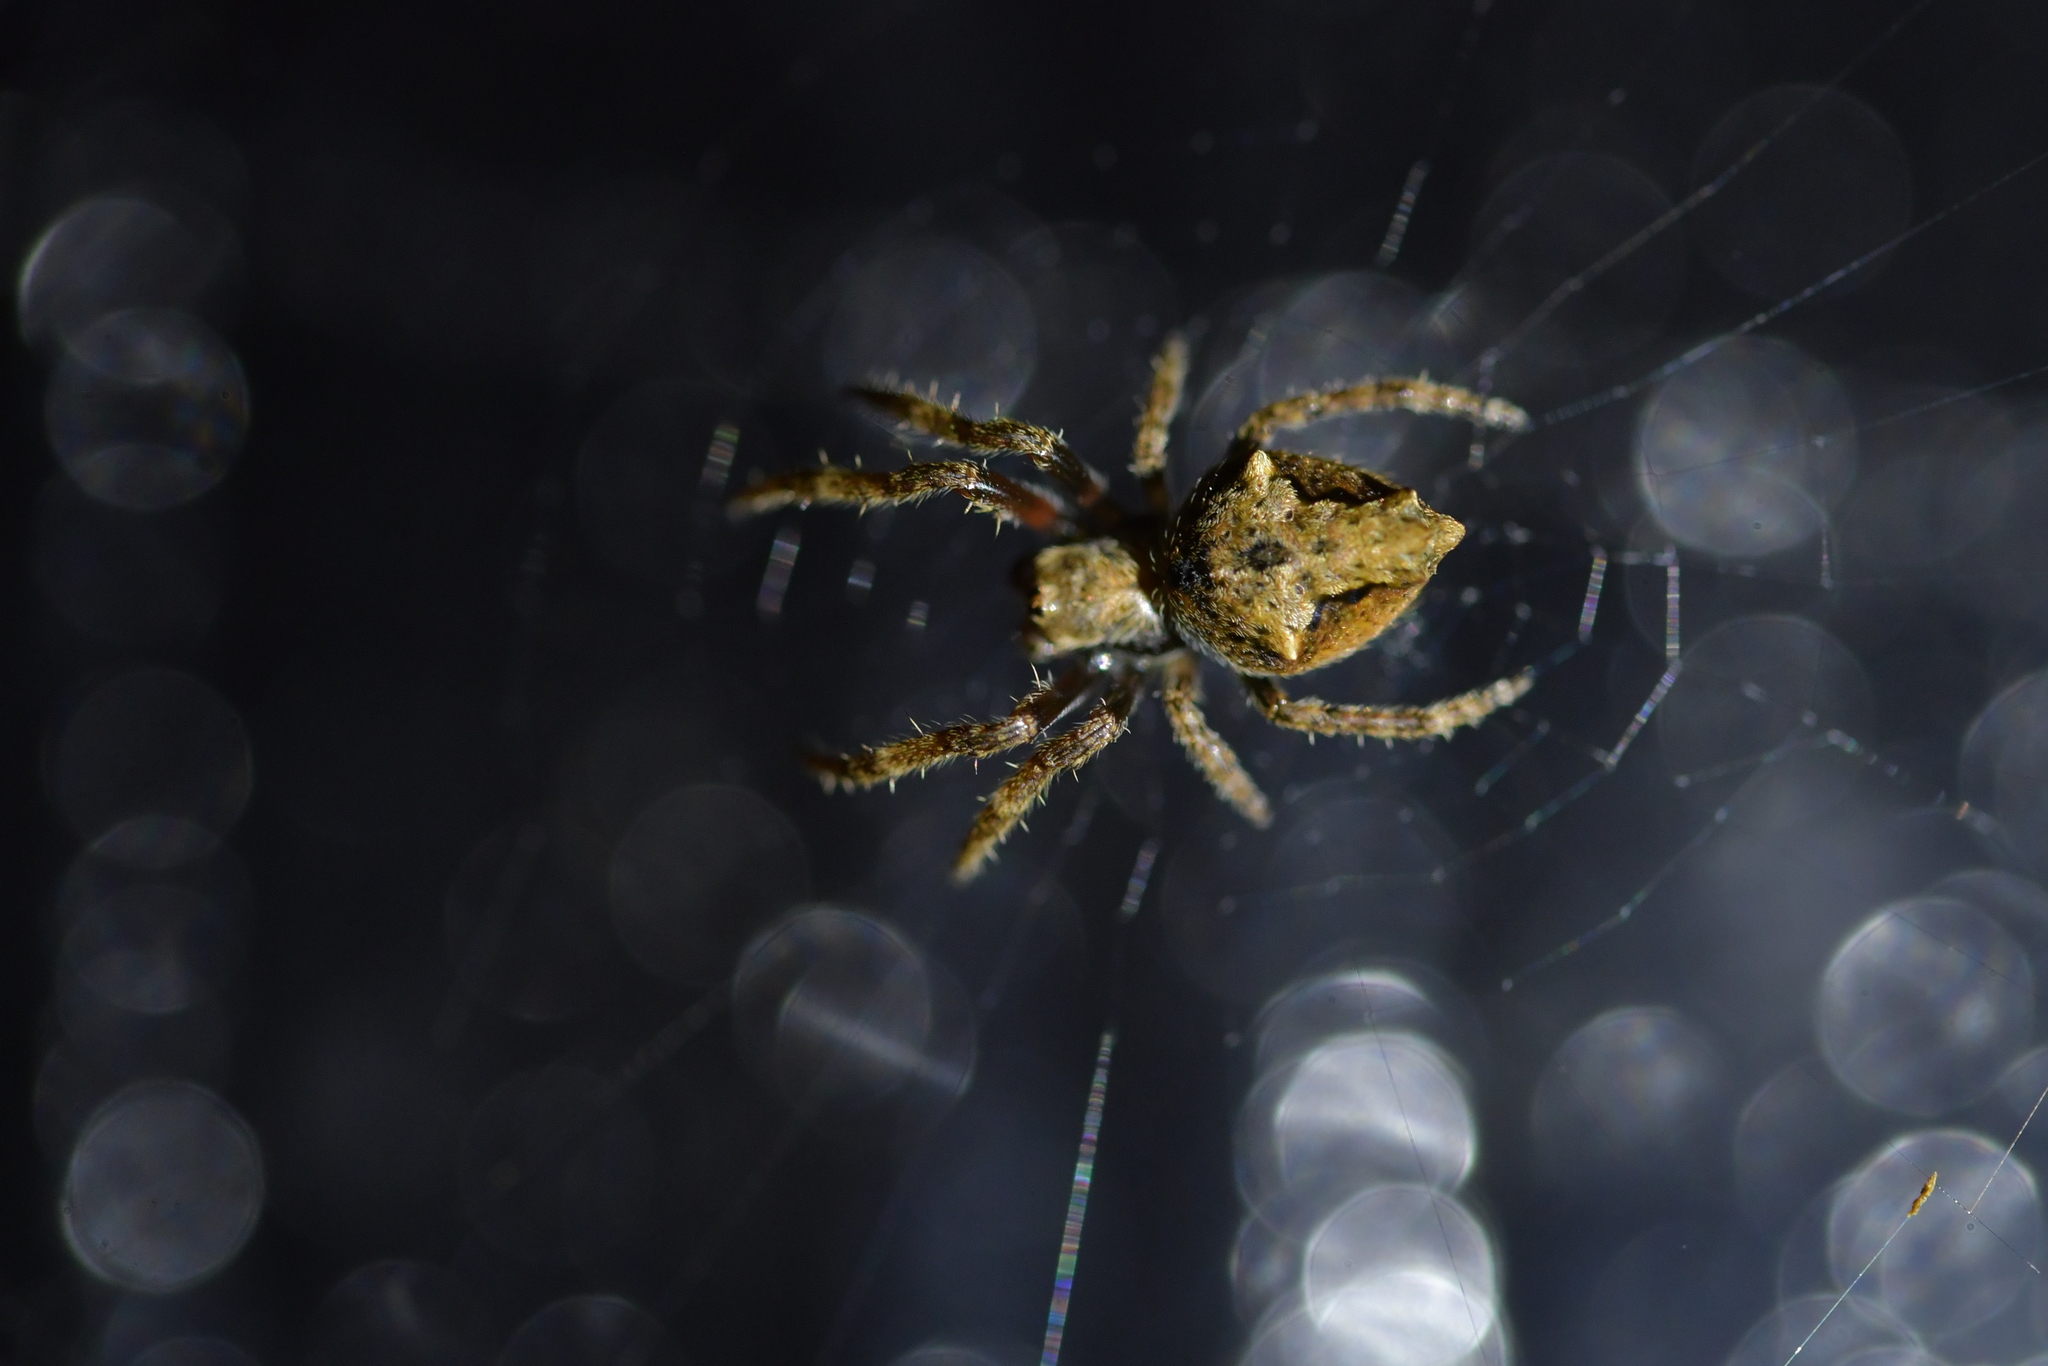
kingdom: Animalia
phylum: Arthropoda
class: Arachnida
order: Araneae
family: Araneidae
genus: Eriophora
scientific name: Eriophora pustulosa
